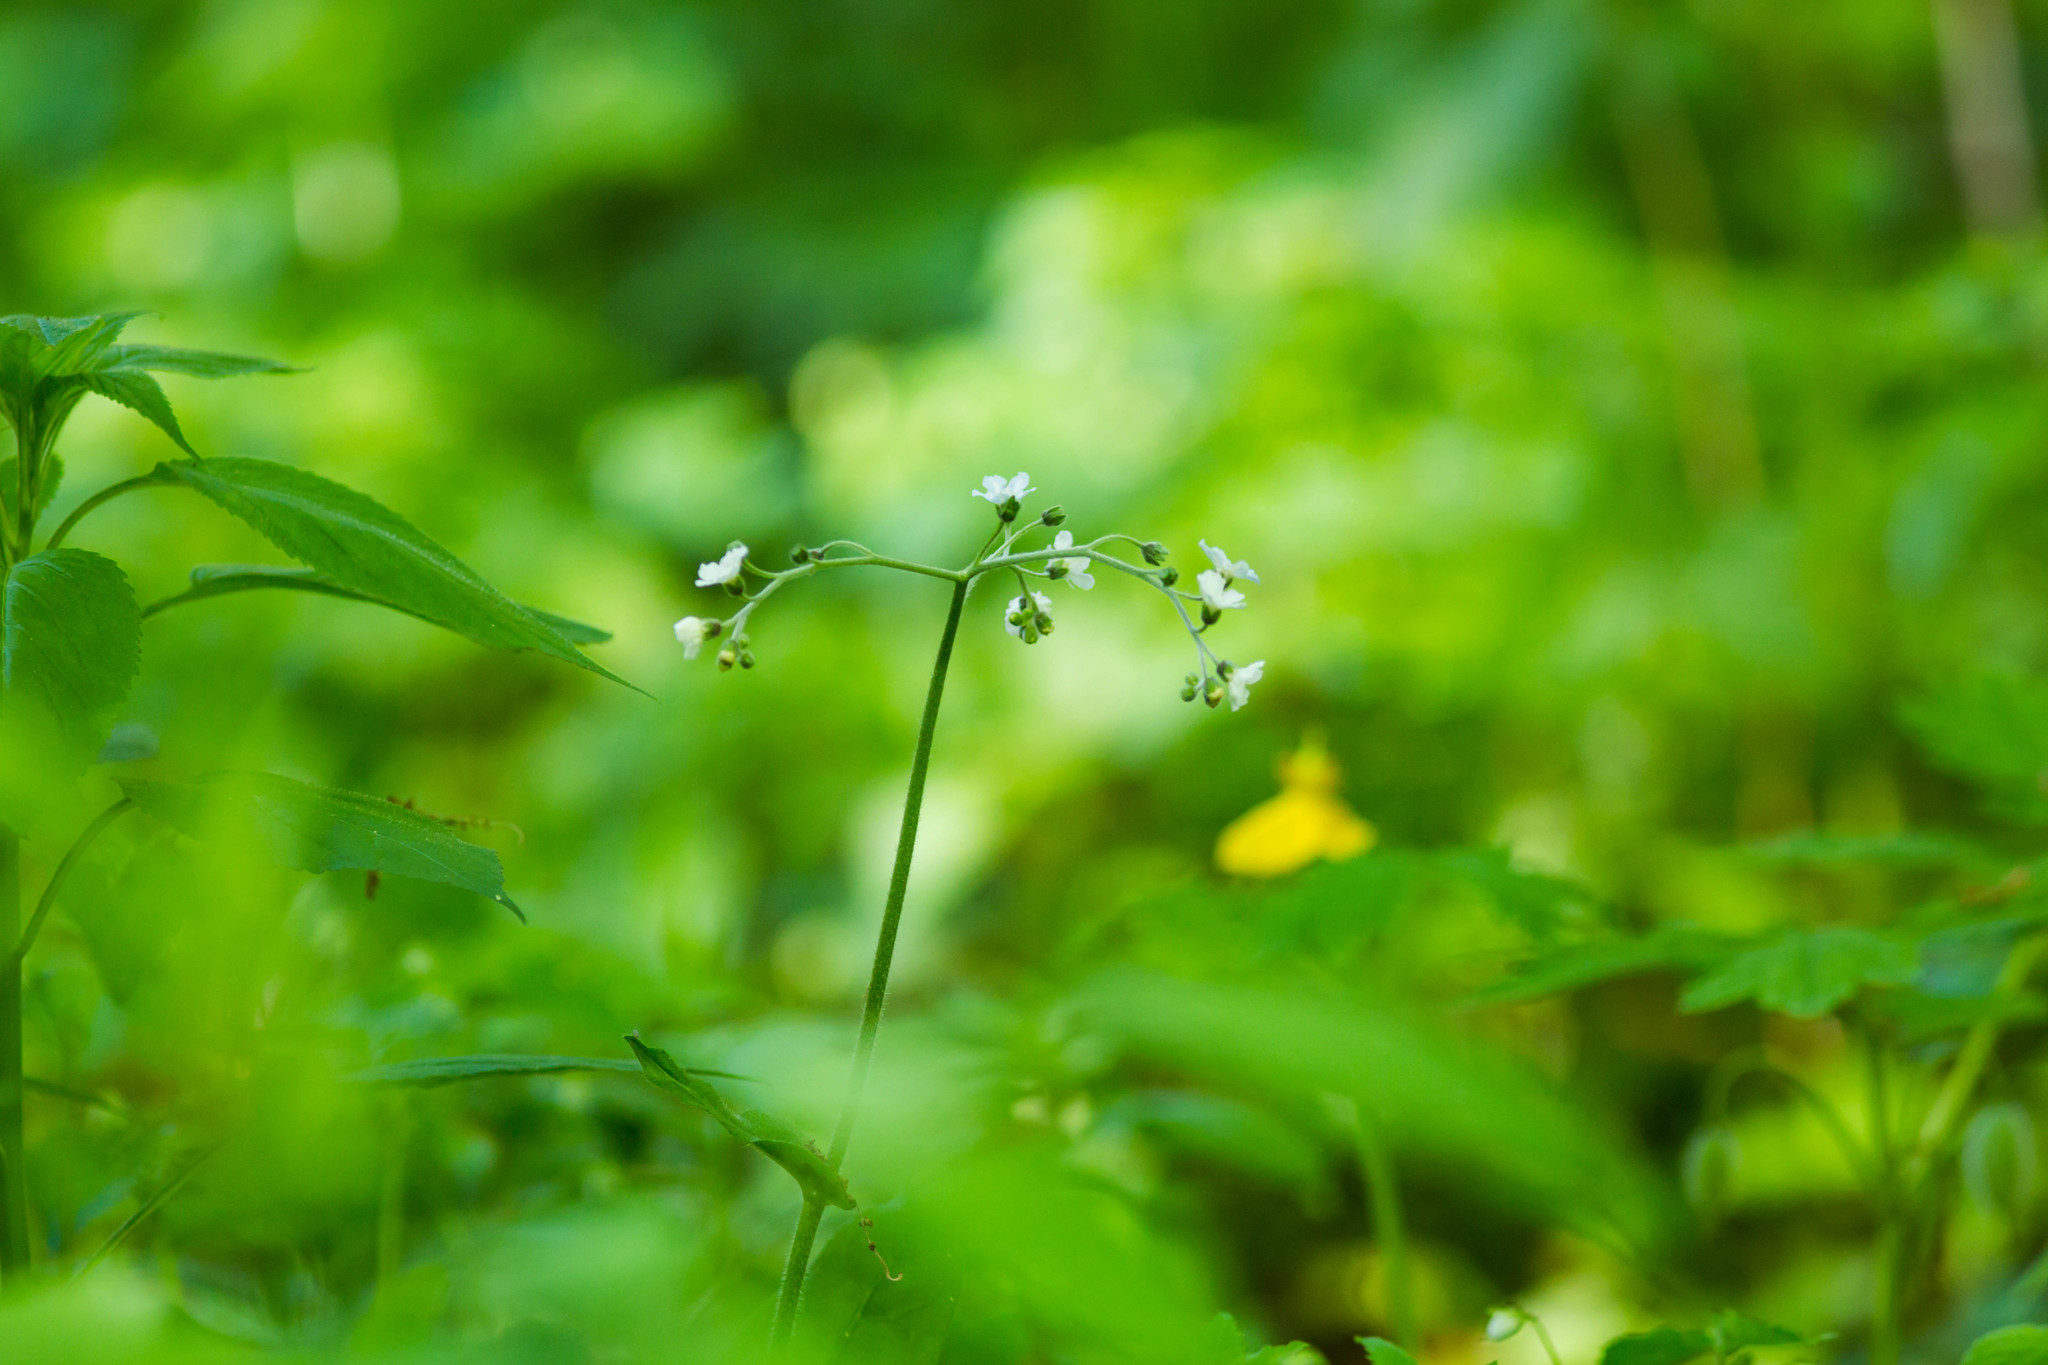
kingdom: Plantae
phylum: Tracheophyta
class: Magnoliopsida
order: Boraginales
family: Boraginaceae
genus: Andersonglossum
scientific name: Andersonglossum virginianum
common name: Wild comfrey
